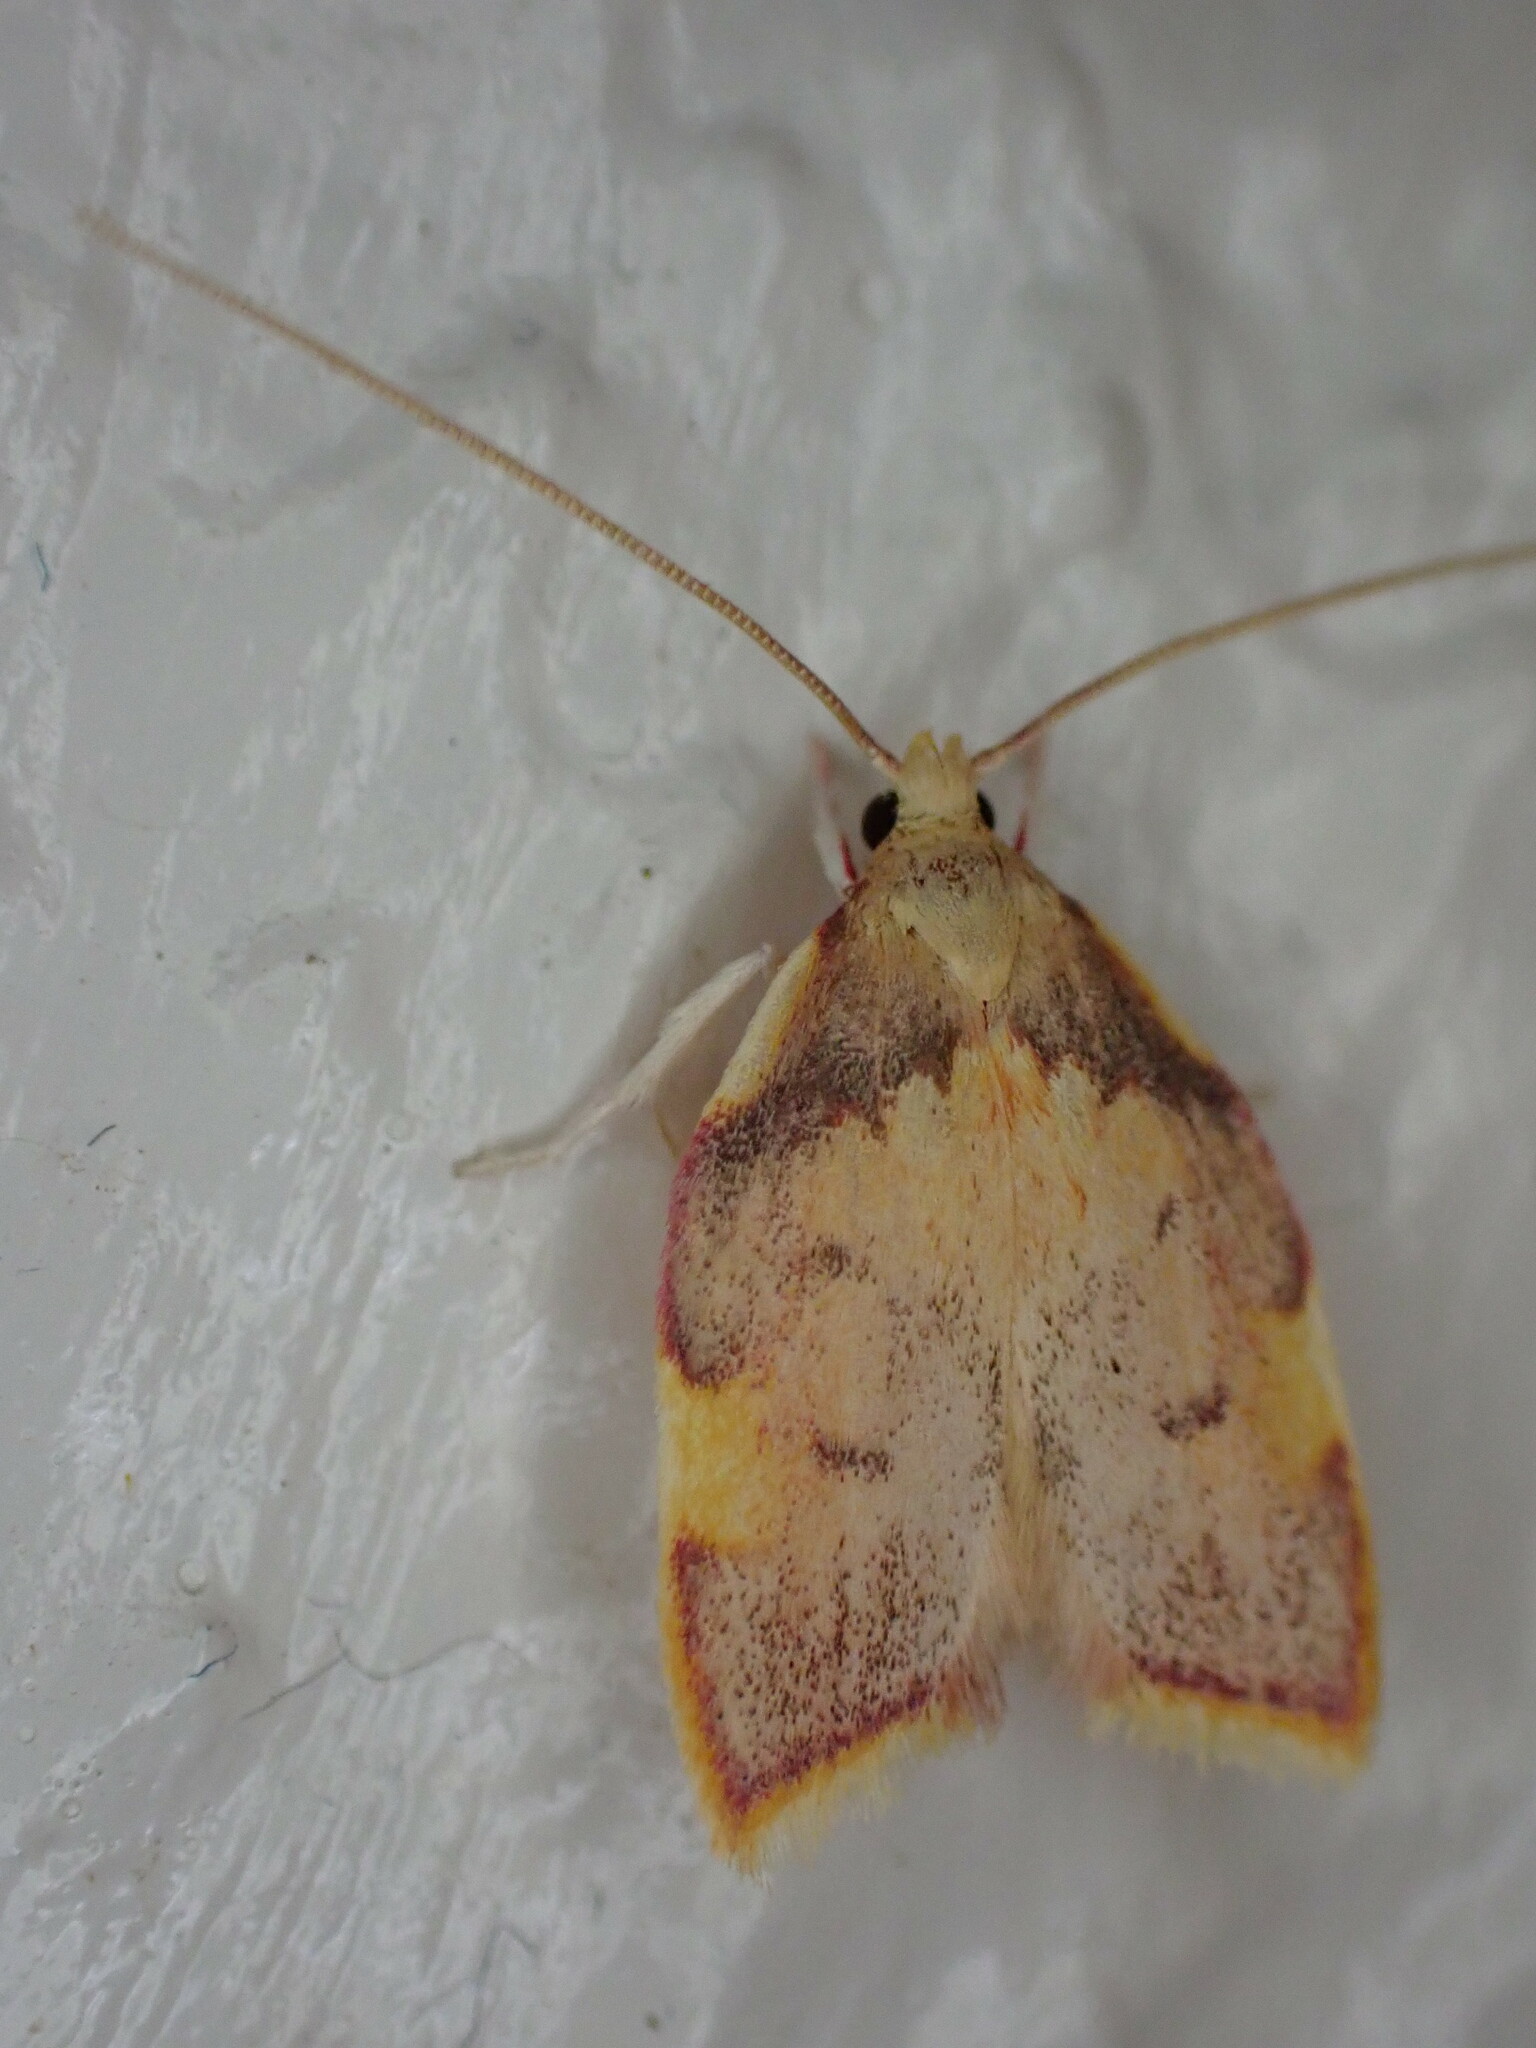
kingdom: Animalia
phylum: Arthropoda
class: Insecta
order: Lepidoptera
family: Peleopodidae
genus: Carcina
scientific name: Carcina quercana
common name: Moth
